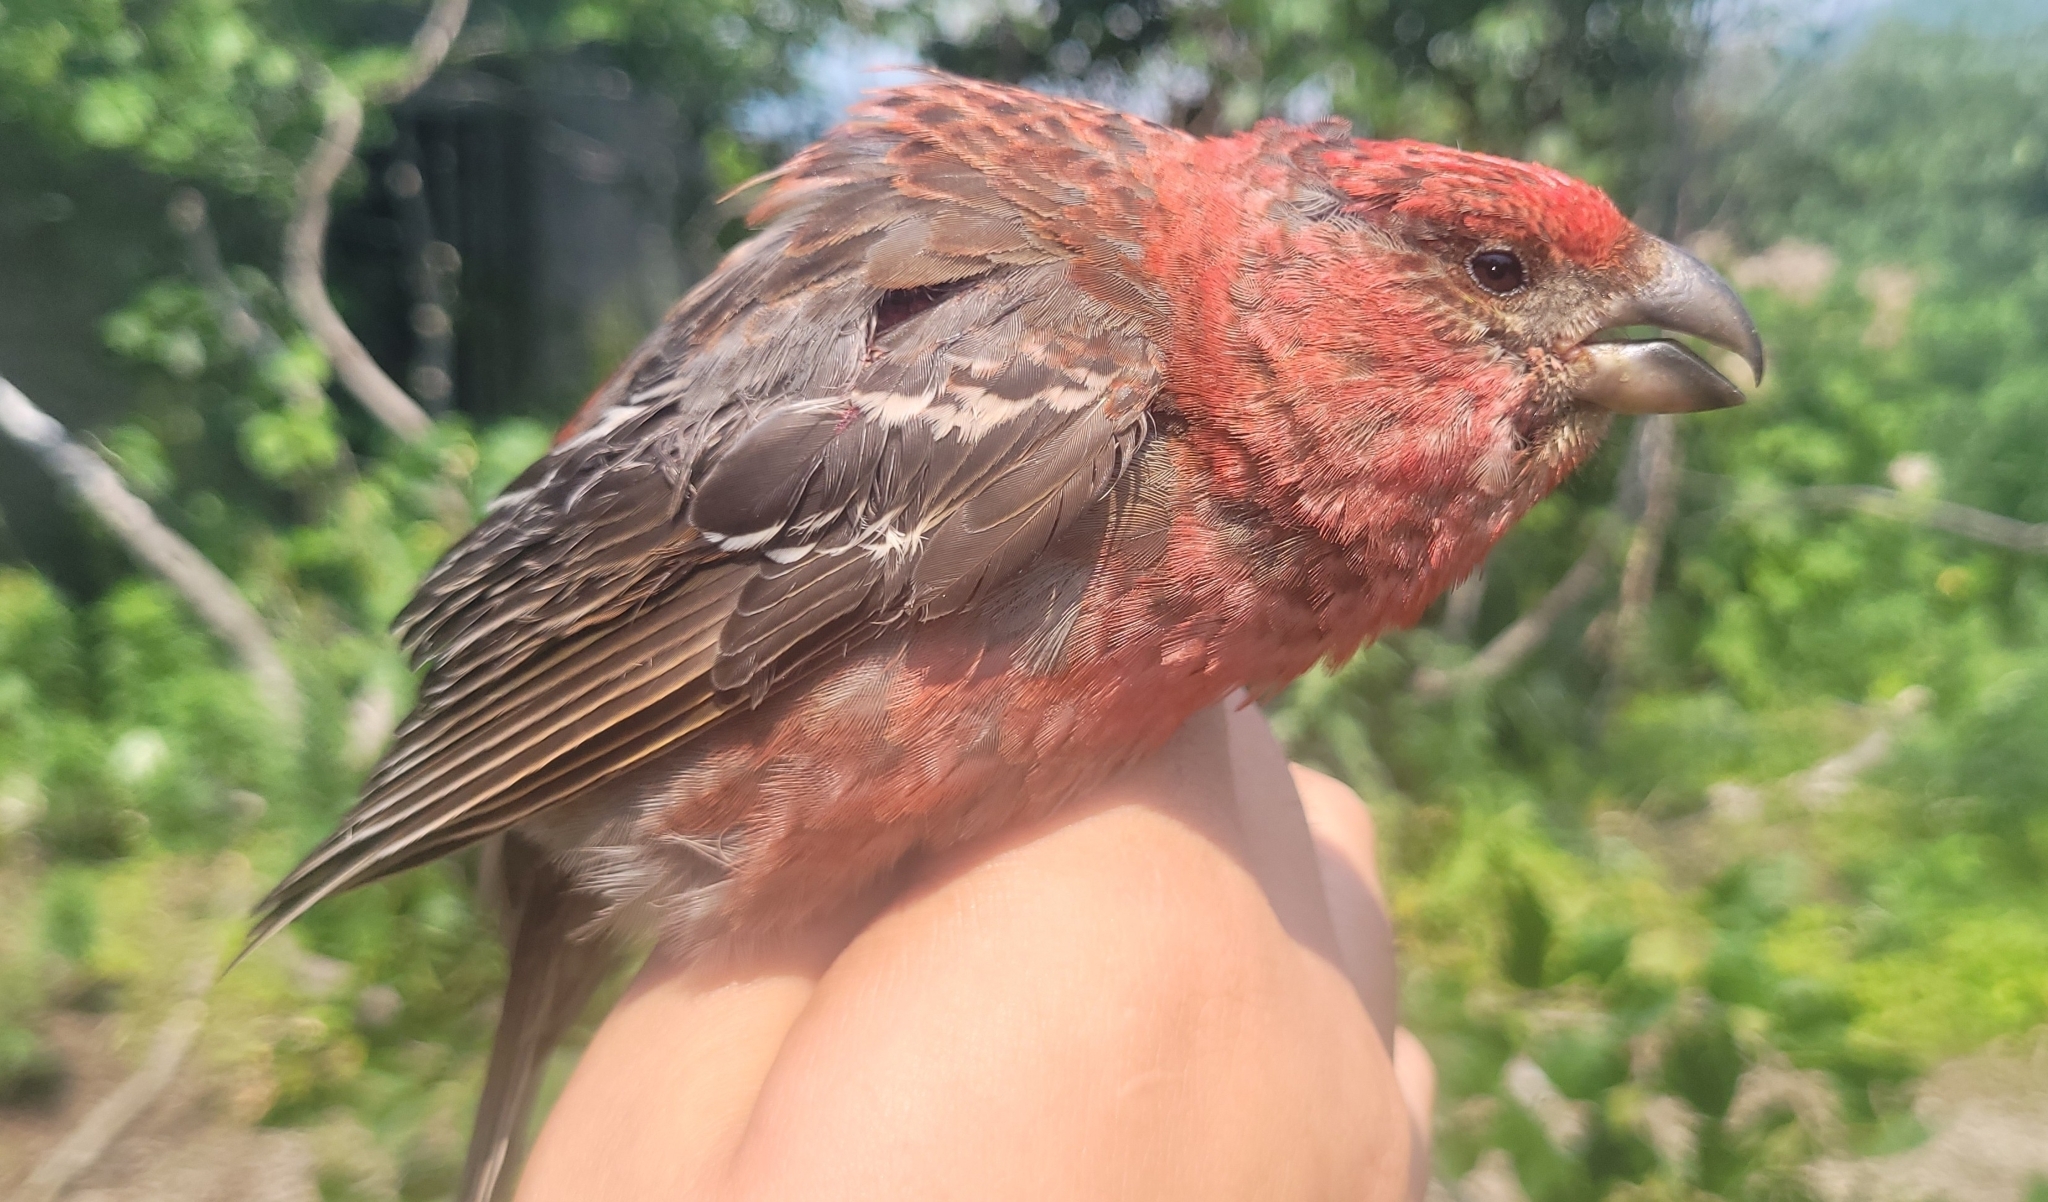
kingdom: Animalia
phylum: Chordata
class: Aves
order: Passeriformes
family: Fringillidae
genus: Pinicola
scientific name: Pinicola enucleator
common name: Pine grosbeak
